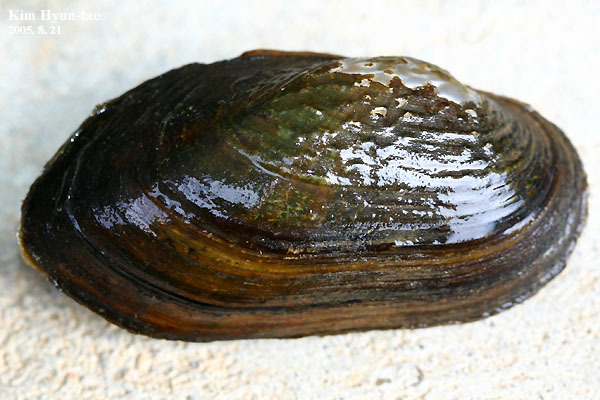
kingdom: Animalia
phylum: Mollusca
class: Bivalvia
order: Unionida
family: Unionidae
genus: Nodularia
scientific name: Nodularia douglasiae
